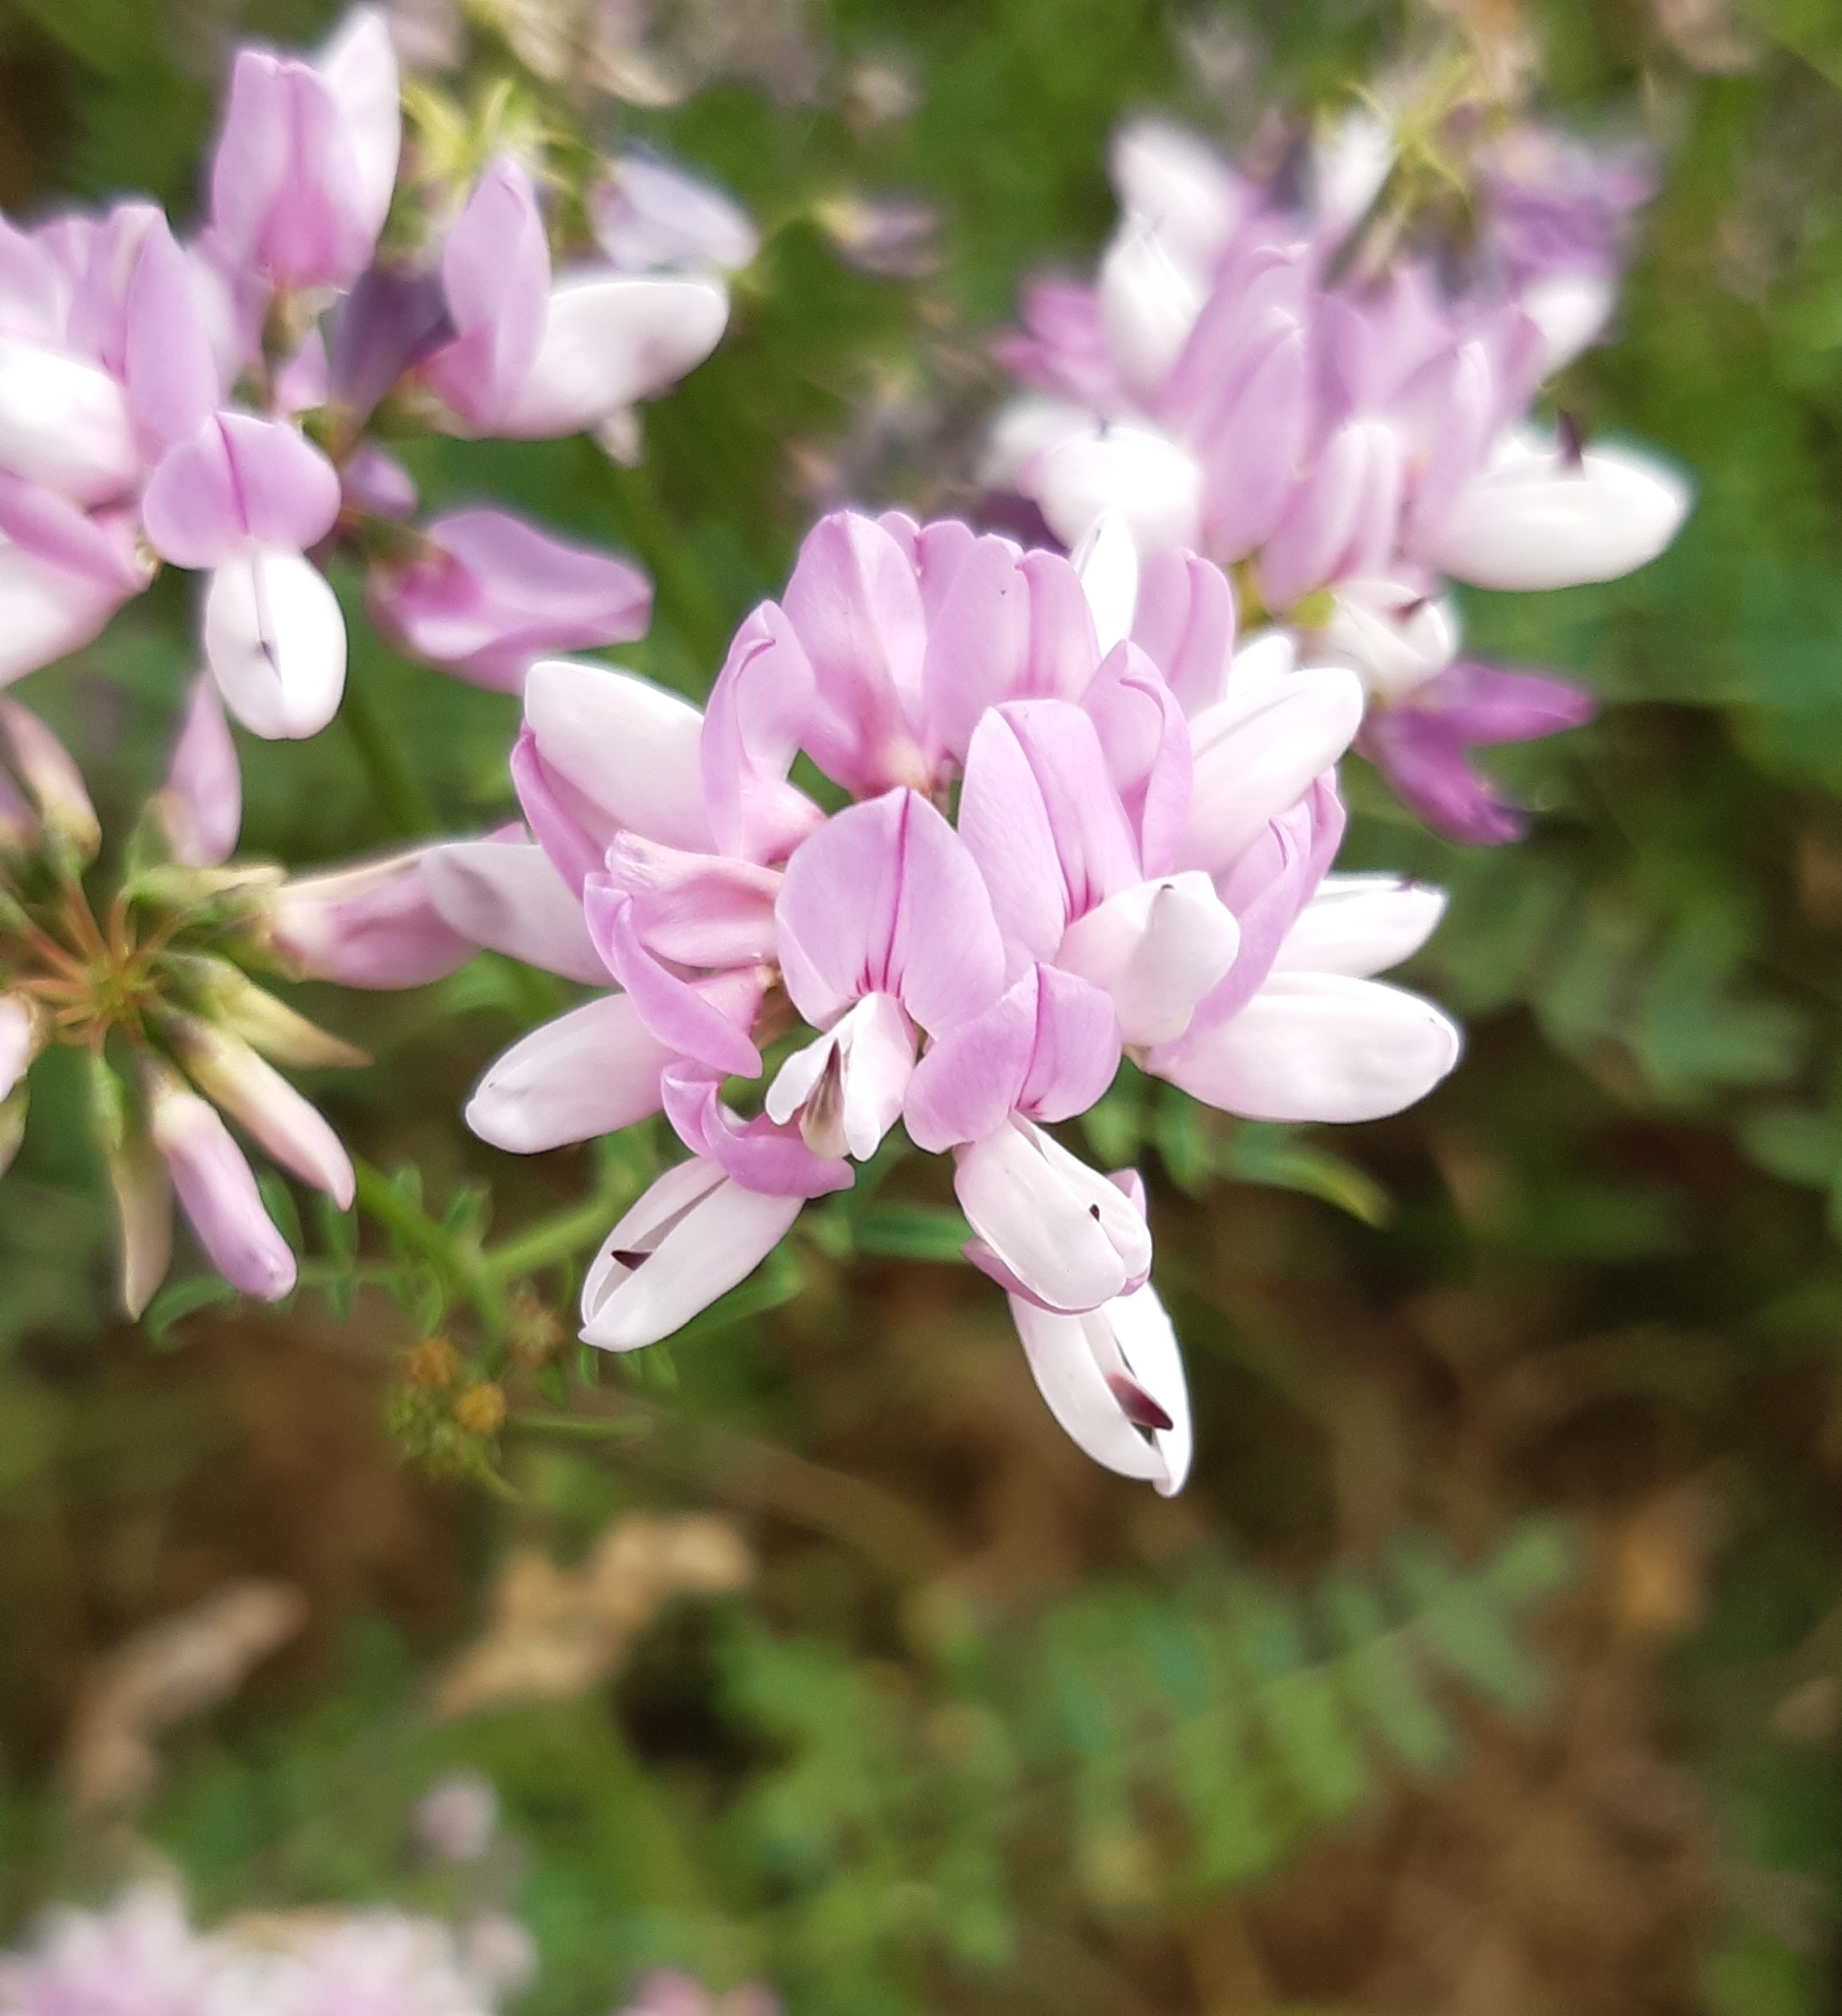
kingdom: Plantae
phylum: Tracheophyta
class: Magnoliopsida
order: Fabales
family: Fabaceae
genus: Coronilla
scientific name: Coronilla varia
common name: Crownvetch
